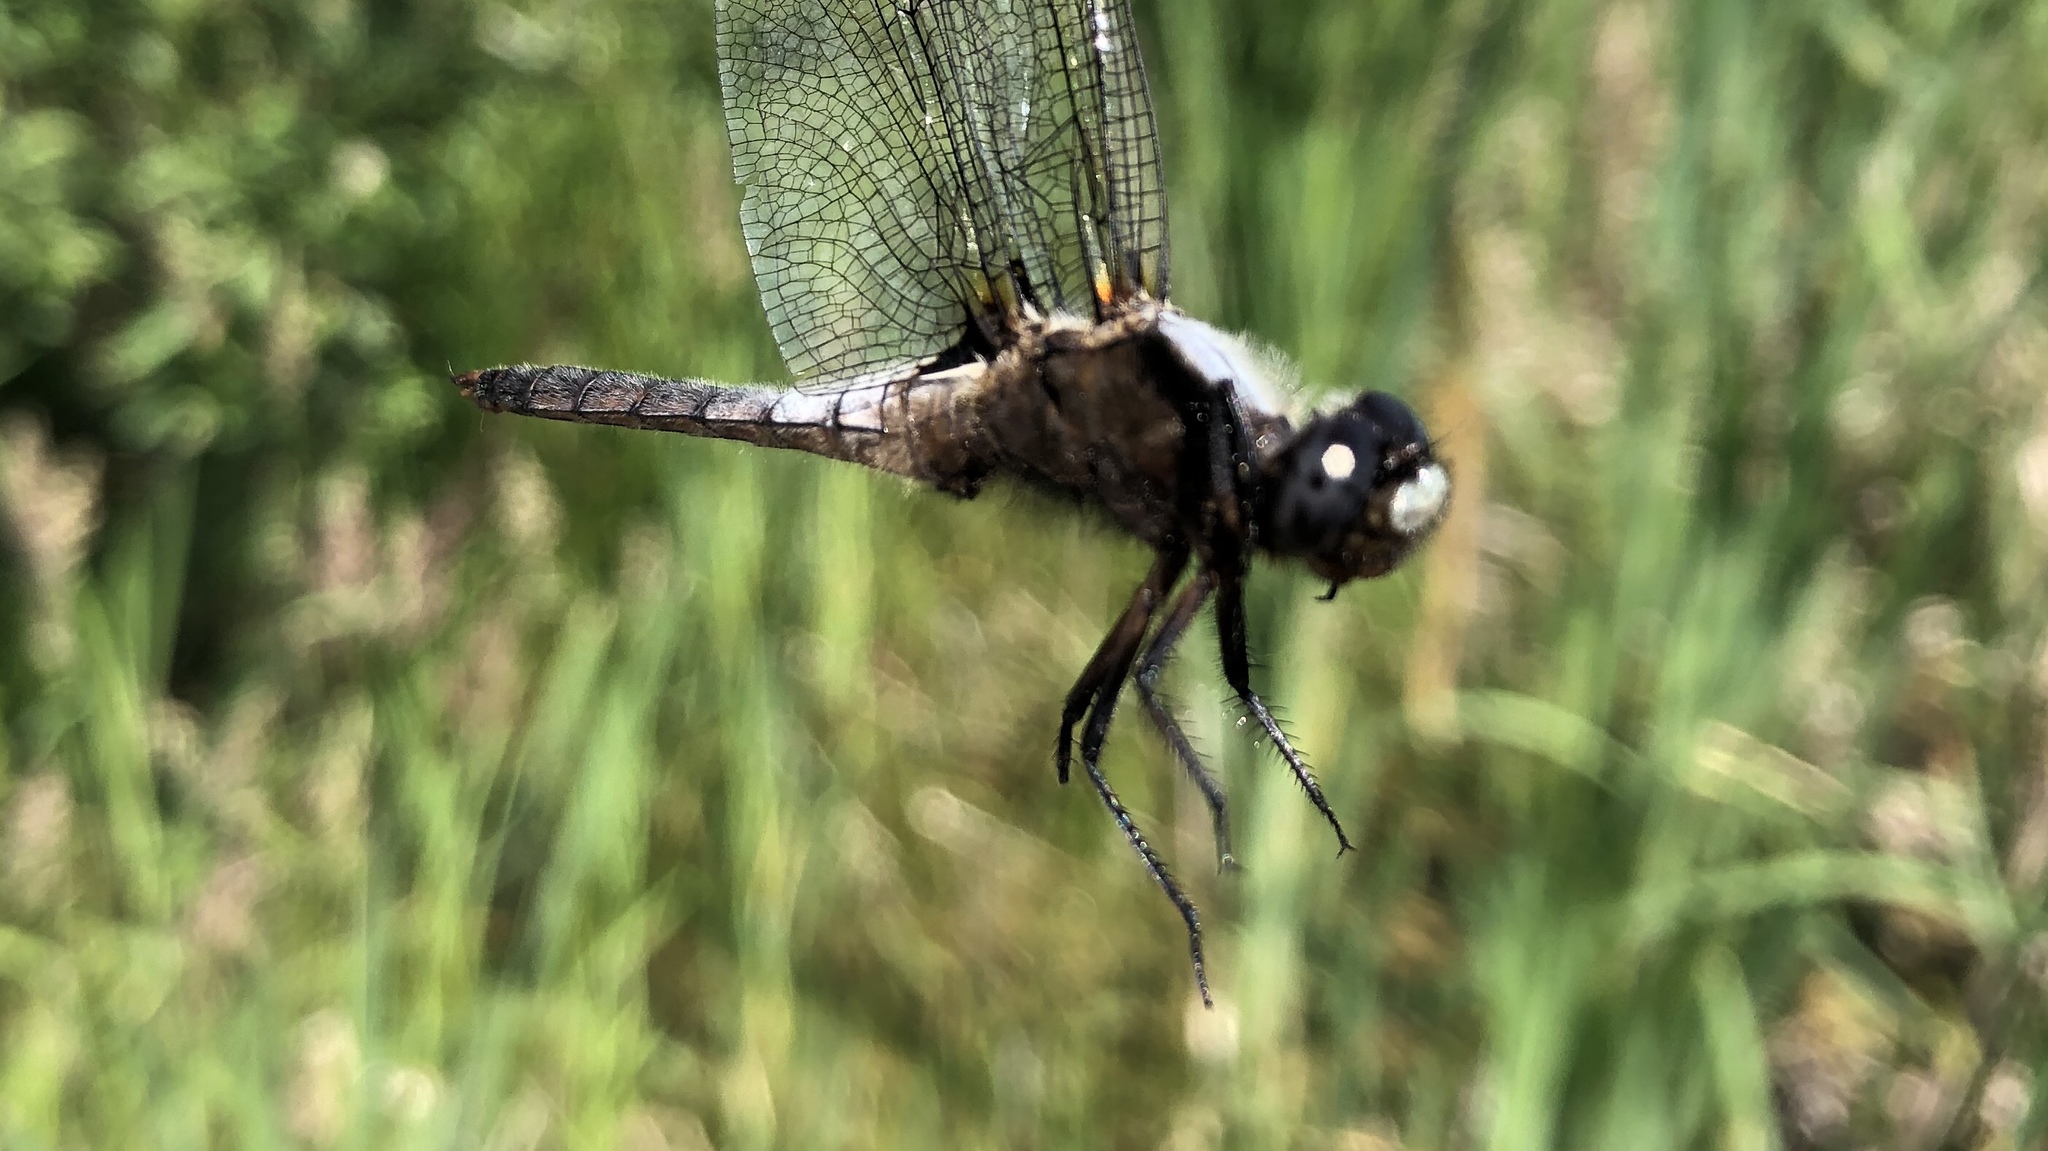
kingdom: Animalia
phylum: Arthropoda
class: Insecta
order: Odonata
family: Libellulidae
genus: Ladona
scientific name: Ladona julia
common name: Chalk-fronted corporal
